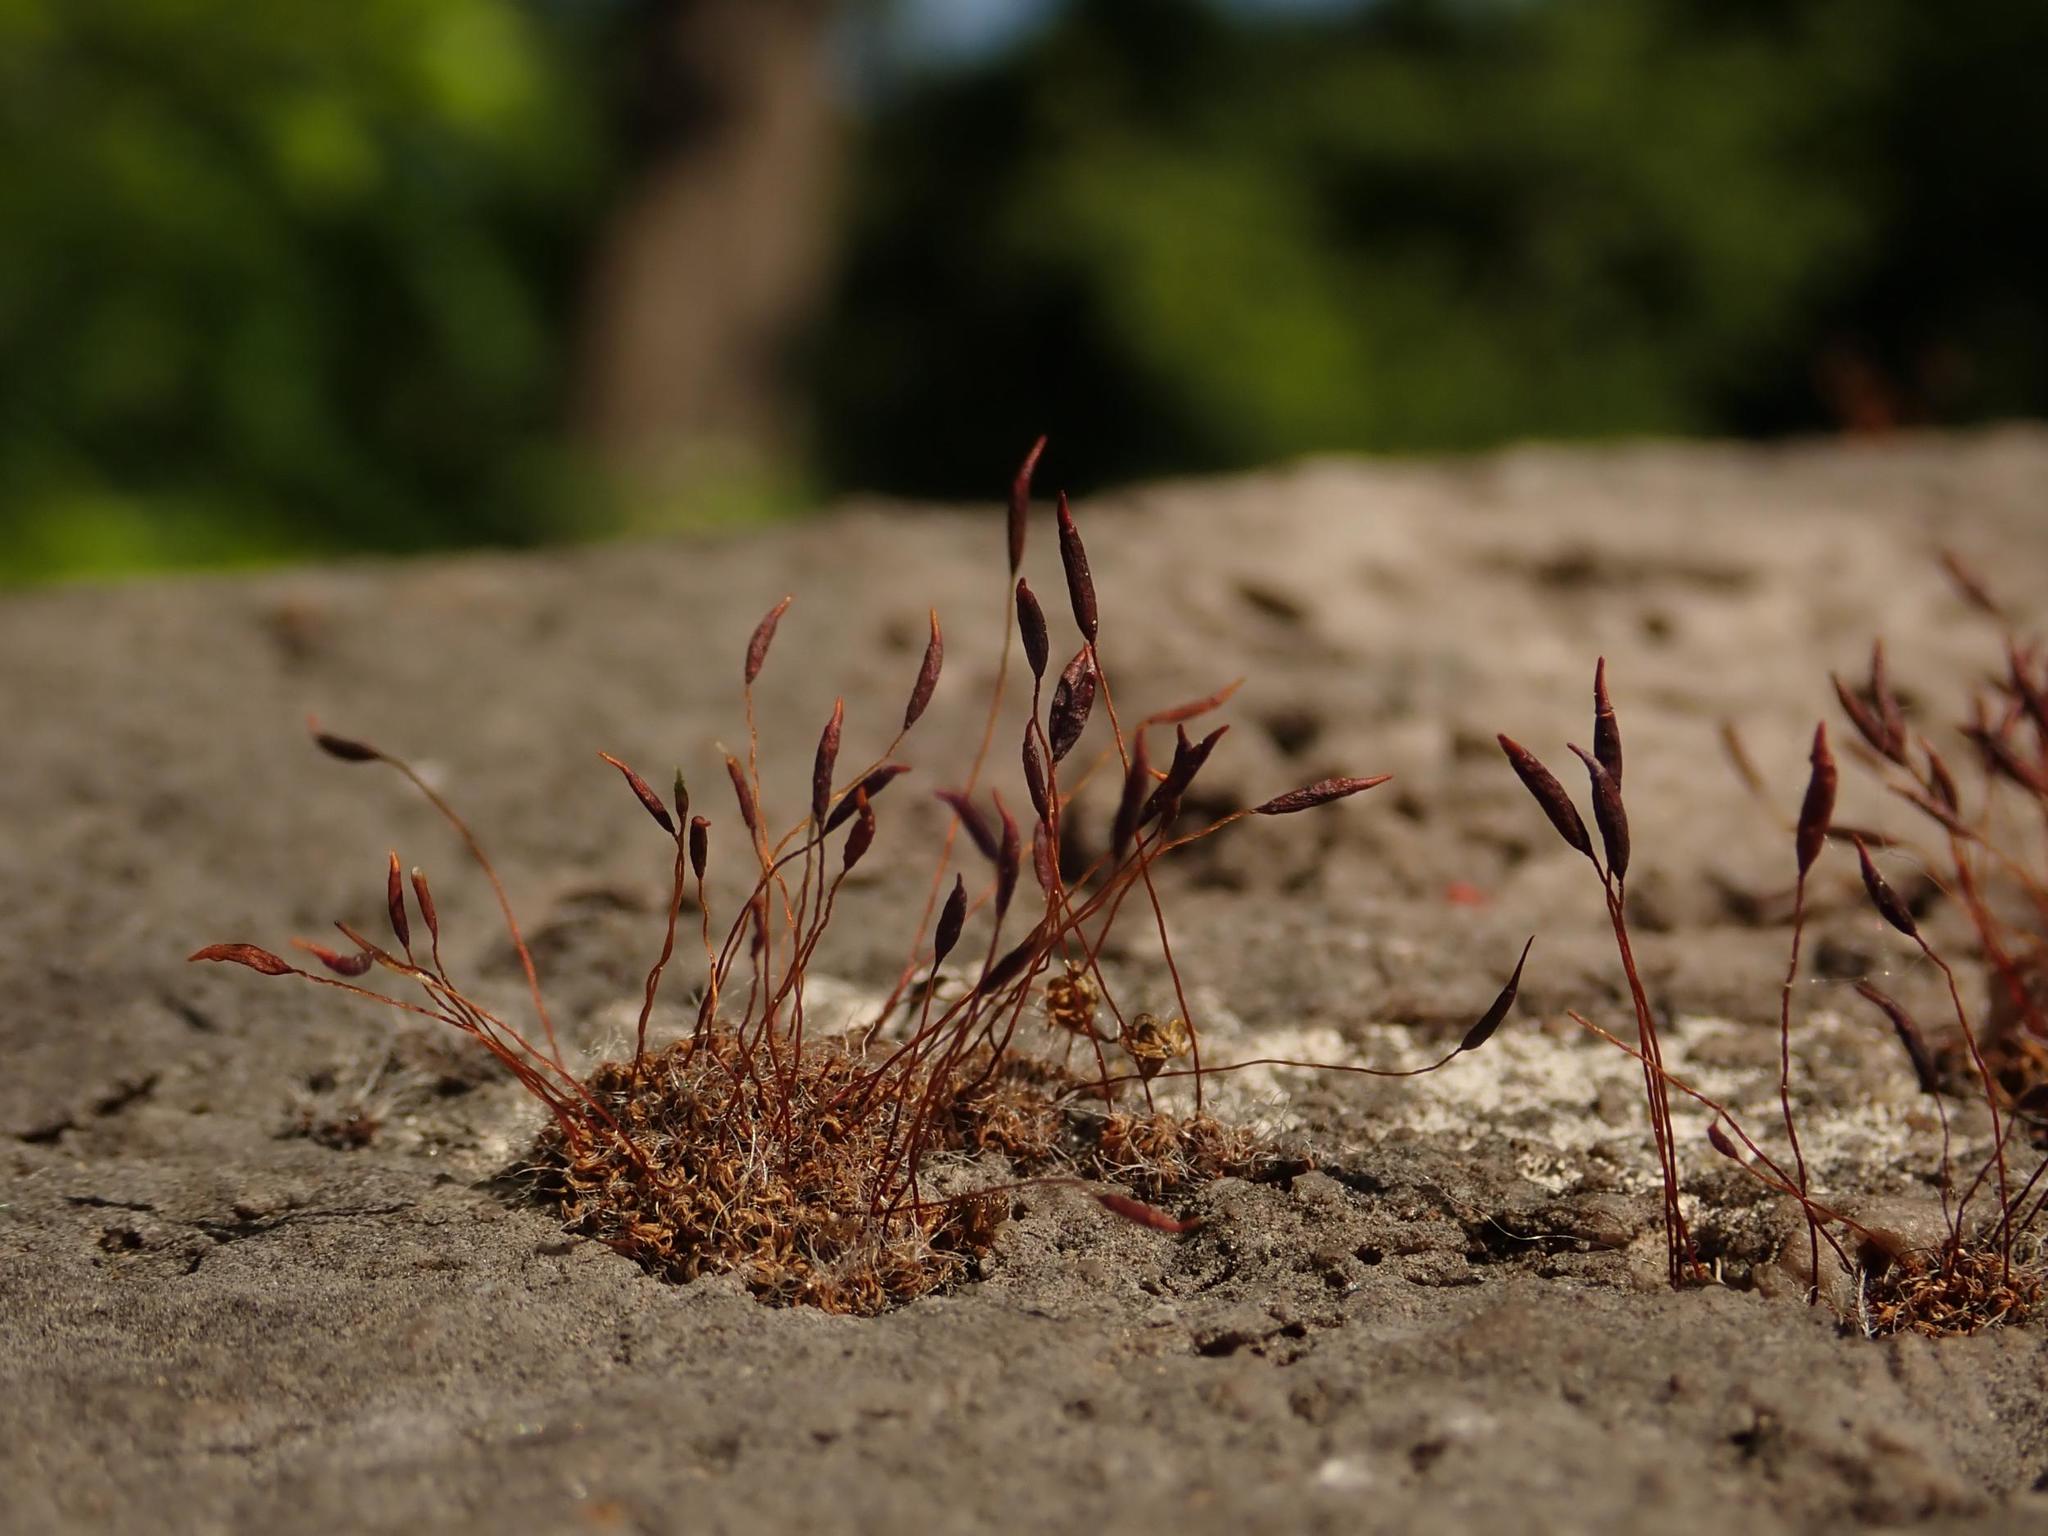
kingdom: Plantae
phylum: Bryophyta
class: Bryopsida
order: Pottiales
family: Pottiaceae
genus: Tortula
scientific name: Tortula muralis
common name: Wall screw-moss
